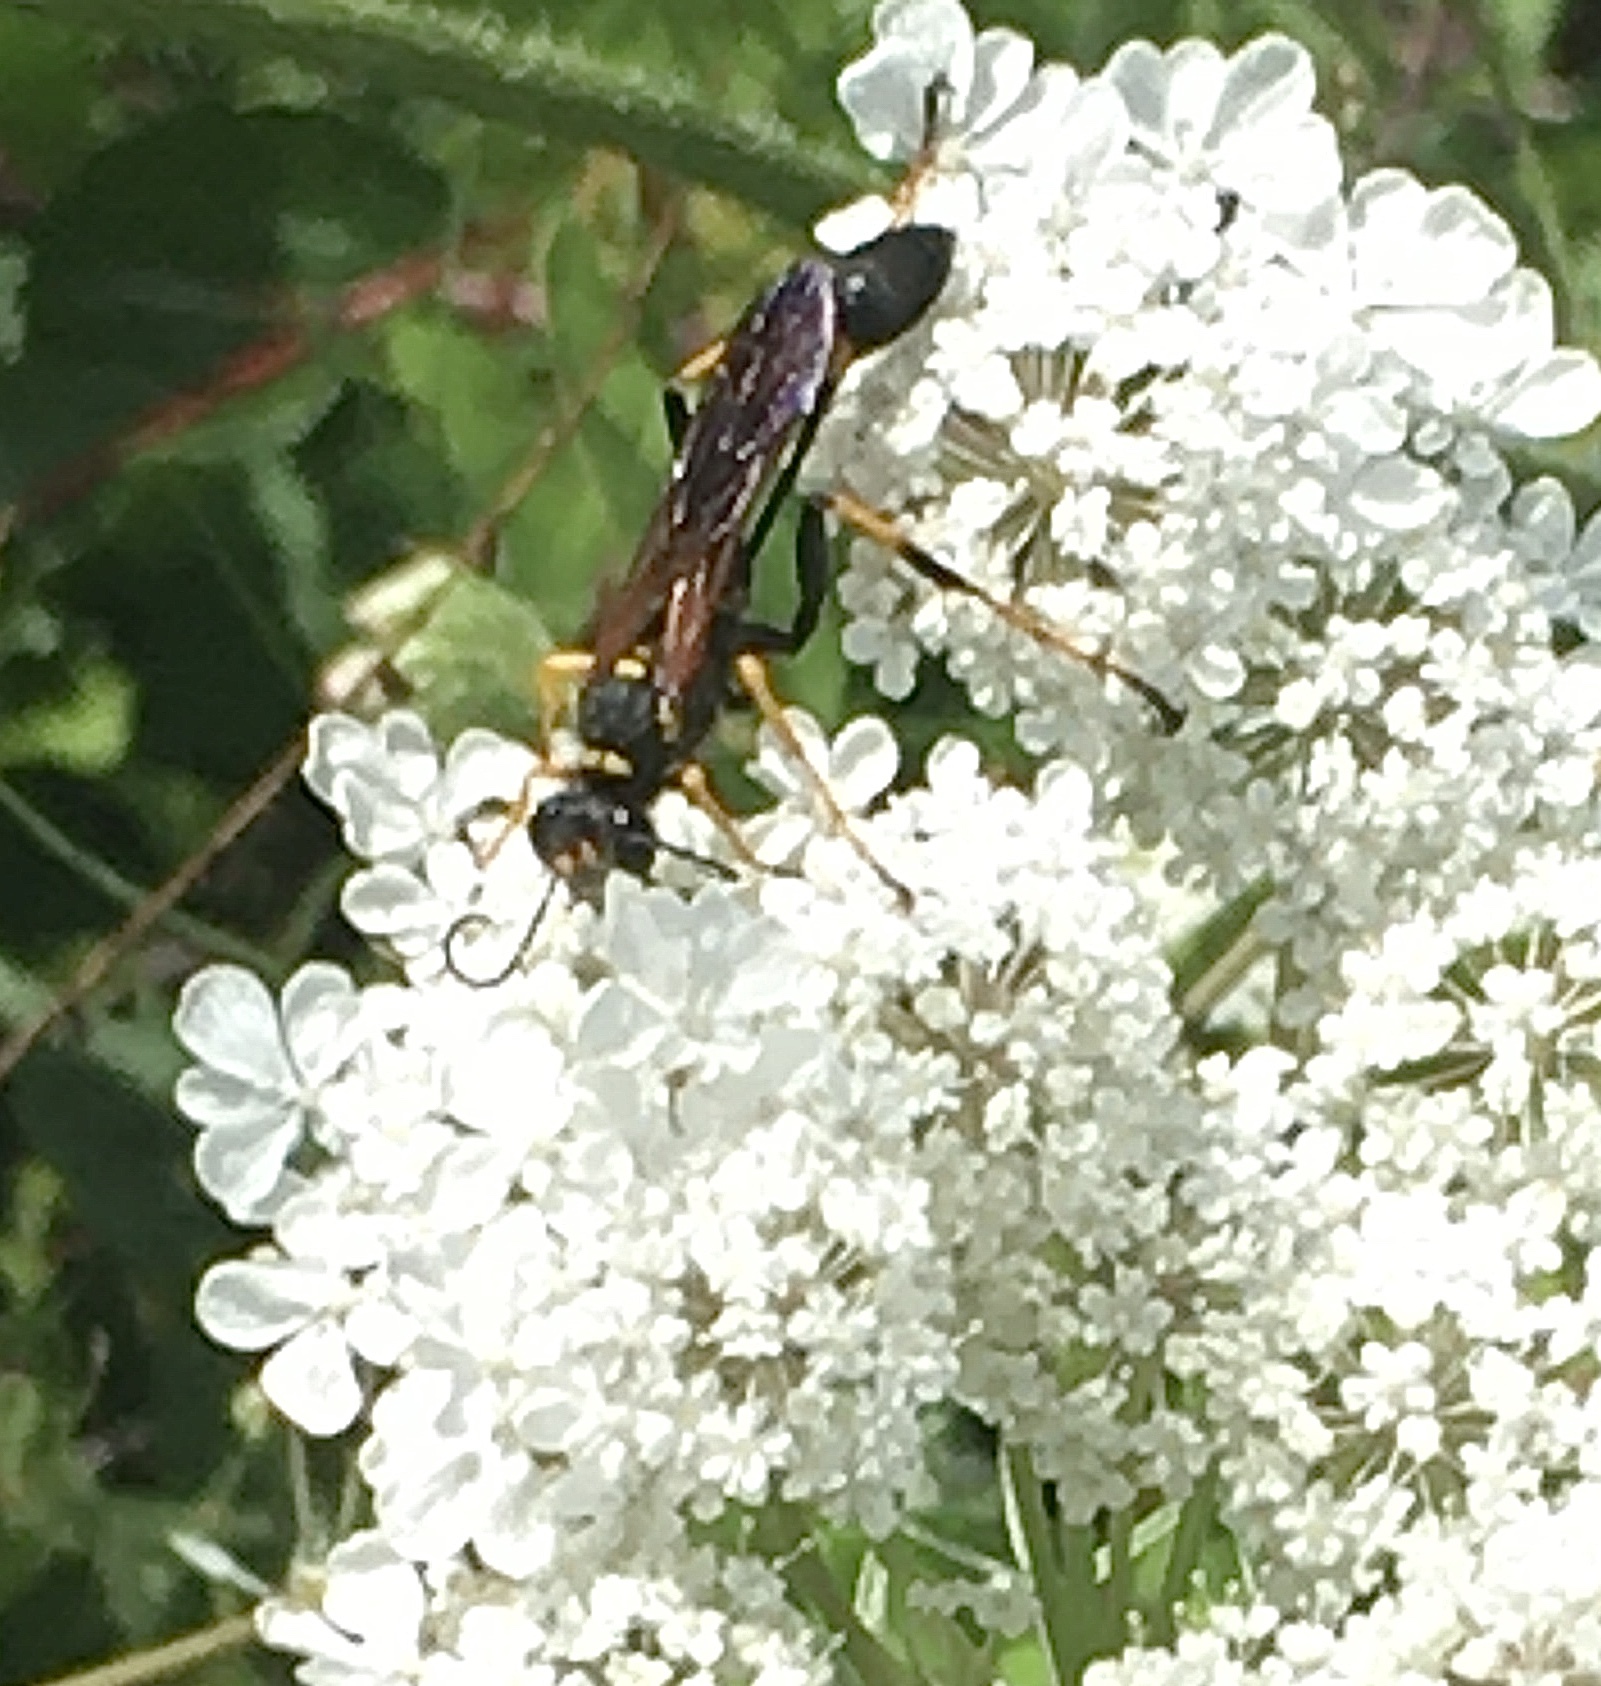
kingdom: Animalia
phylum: Arthropoda
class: Insecta
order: Hymenoptera
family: Sphecidae
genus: Sceliphron
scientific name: Sceliphron caementarium
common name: Mud dauber
